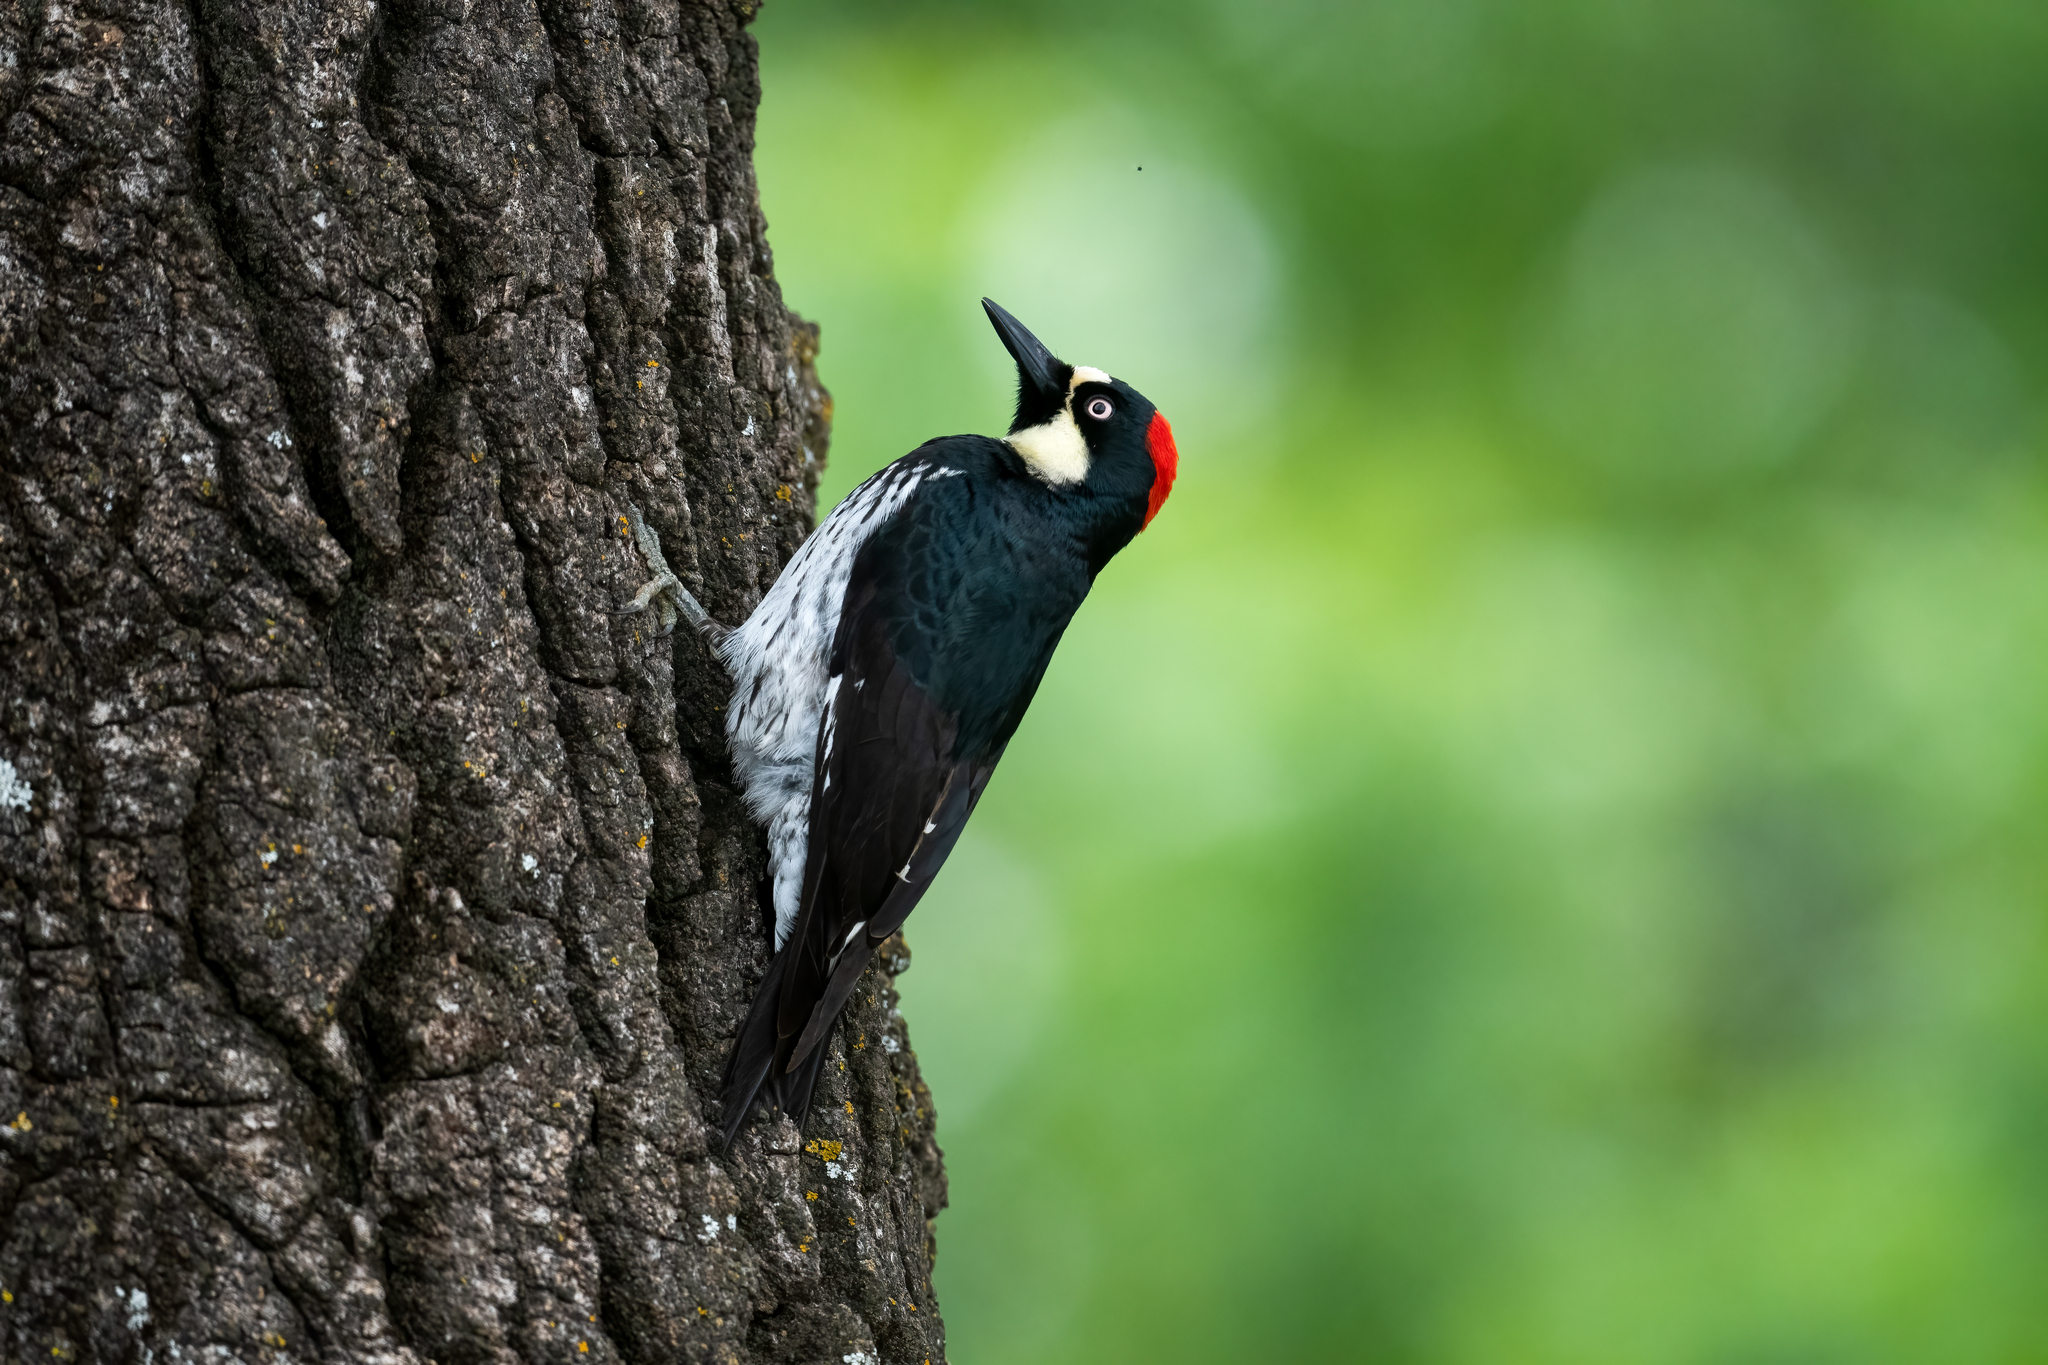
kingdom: Animalia
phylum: Chordata
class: Aves
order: Piciformes
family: Picidae
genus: Melanerpes
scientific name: Melanerpes formicivorus
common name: Acorn woodpecker
